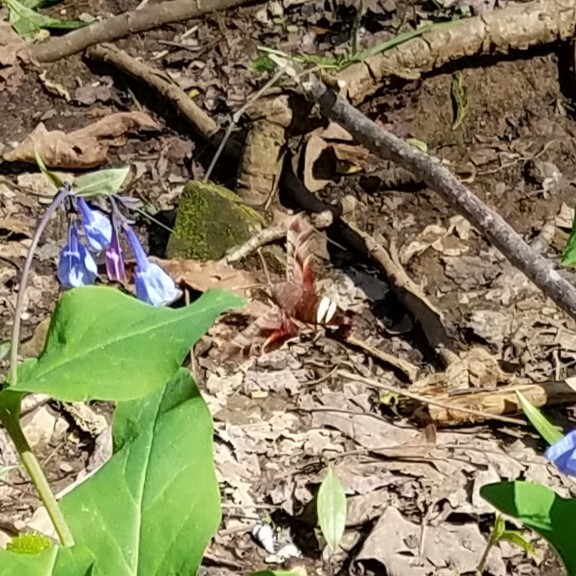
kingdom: Animalia
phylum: Arthropoda
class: Insecta
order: Lepidoptera
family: Sphingidae
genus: Amphion
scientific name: Amphion floridensis
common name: Nessus sphinx
